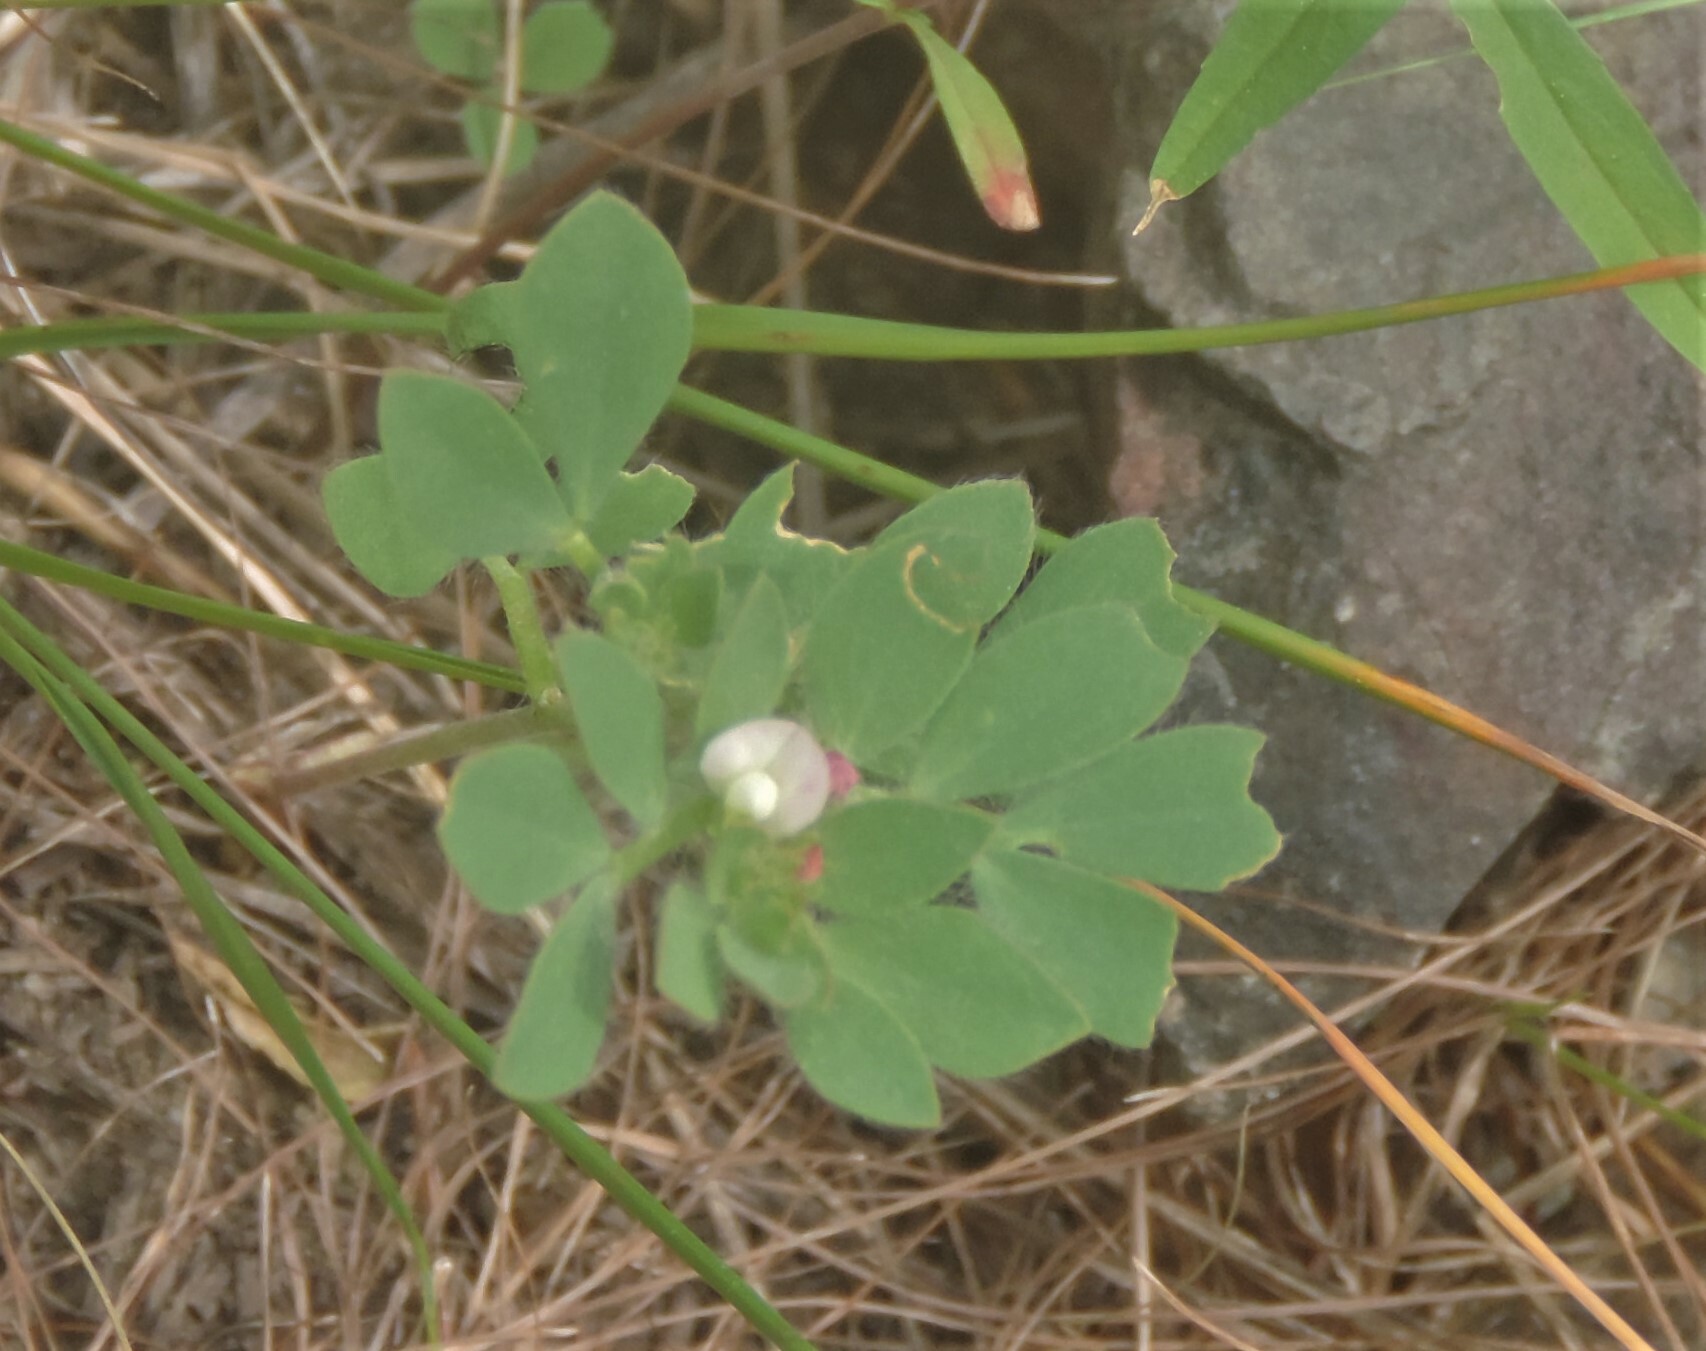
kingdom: Plantae
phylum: Tracheophyta
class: Magnoliopsida
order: Fabales
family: Fabaceae
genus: Acmispon
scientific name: Acmispon denticulatus
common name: Meadow bird's-foot trefoil
